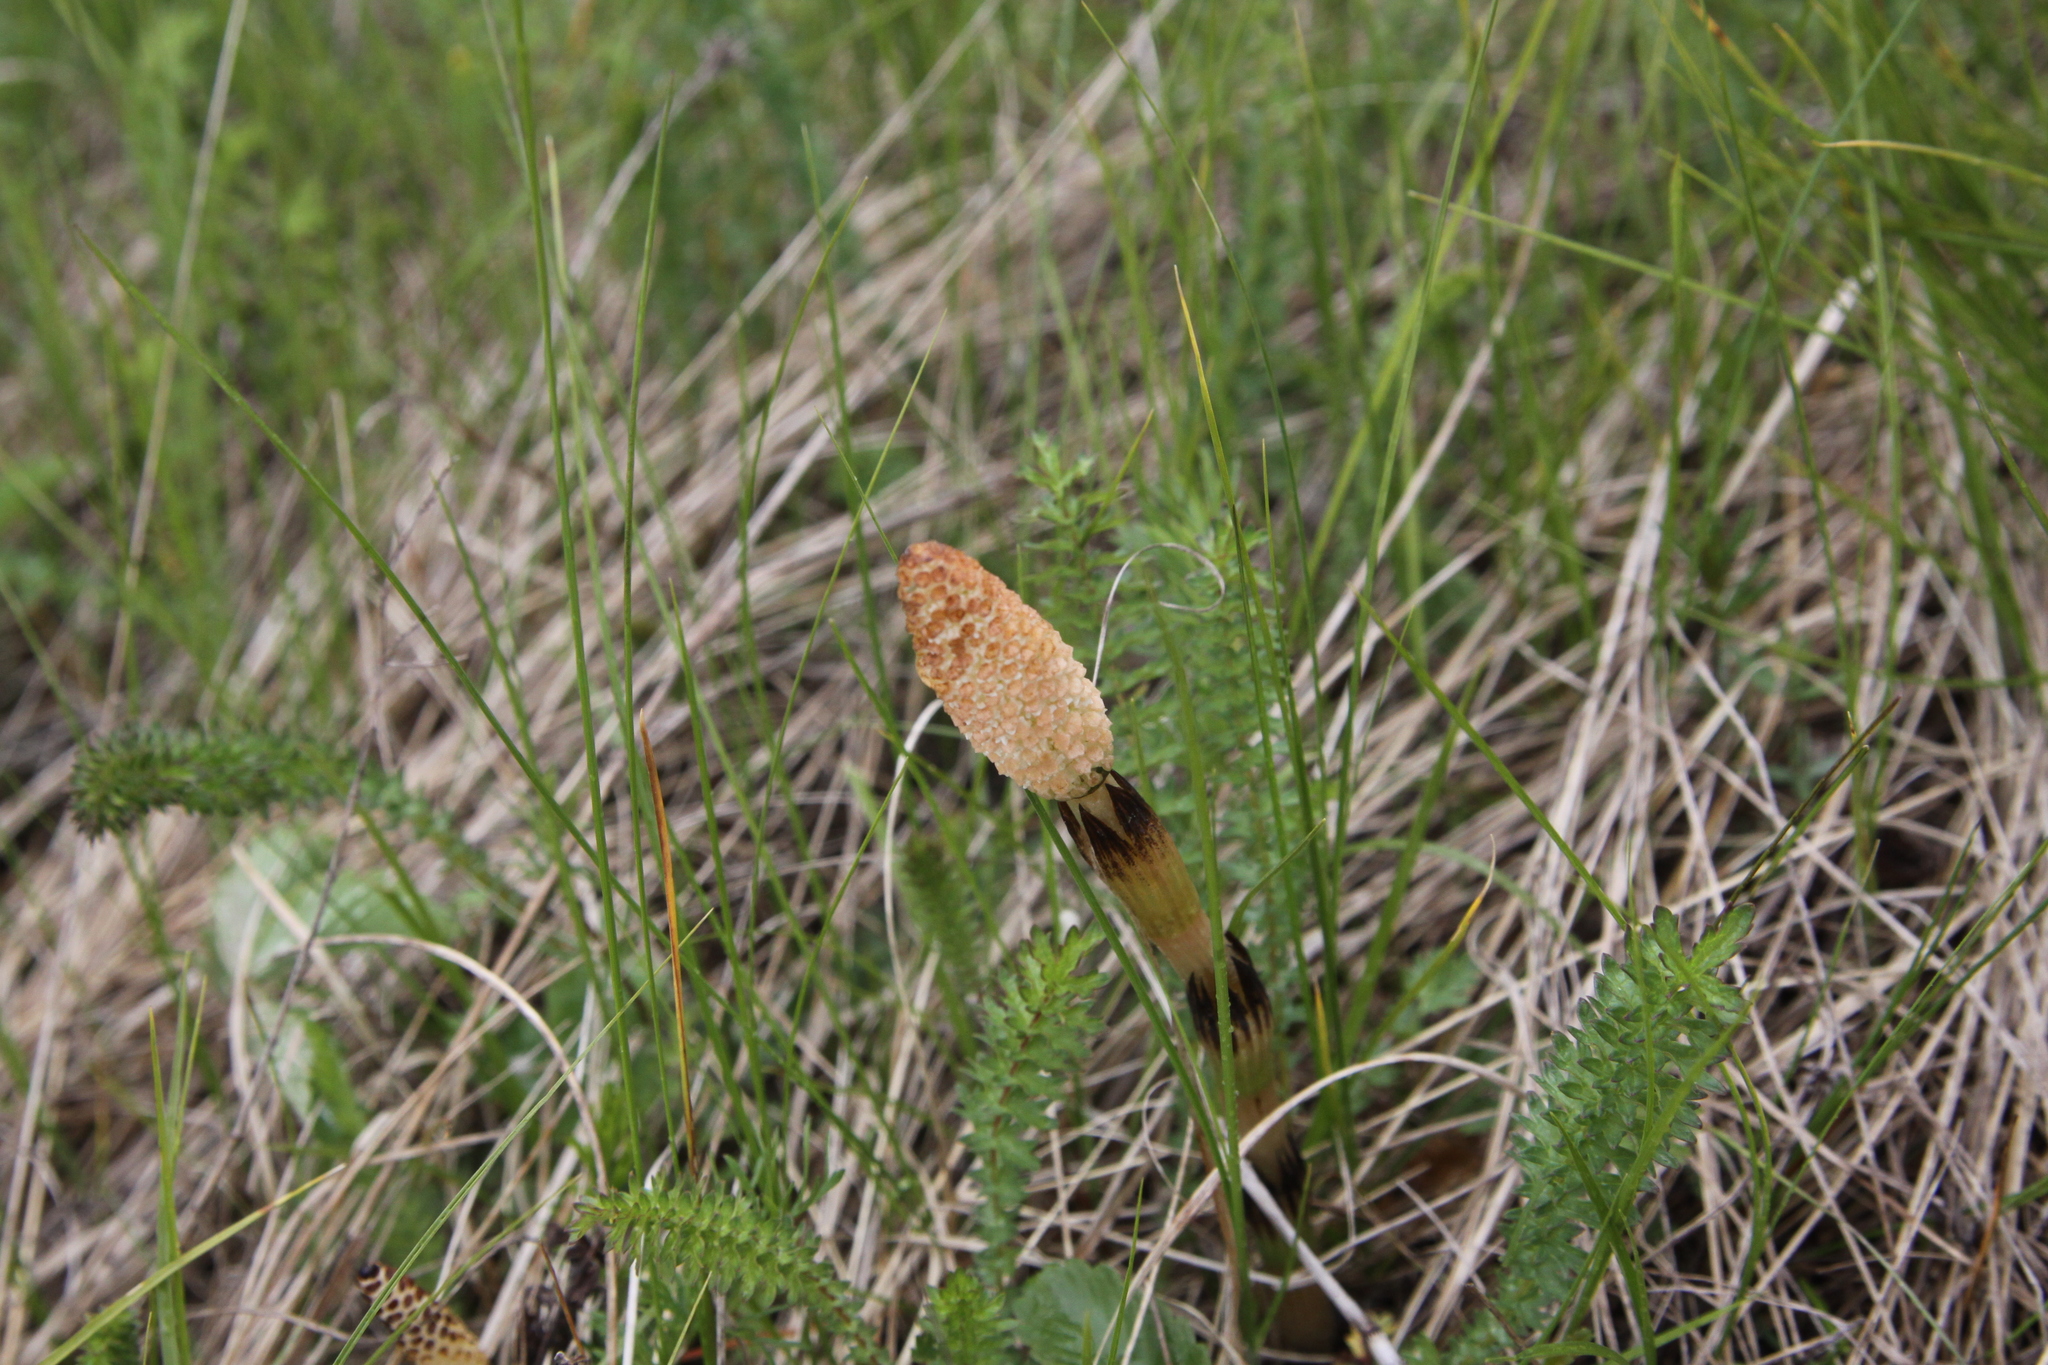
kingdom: Plantae
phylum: Tracheophyta
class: Polypodiopsida
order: Equisetales
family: Equisetaceae
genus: Equisetum
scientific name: Equisetum arvense
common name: Field horsetail
